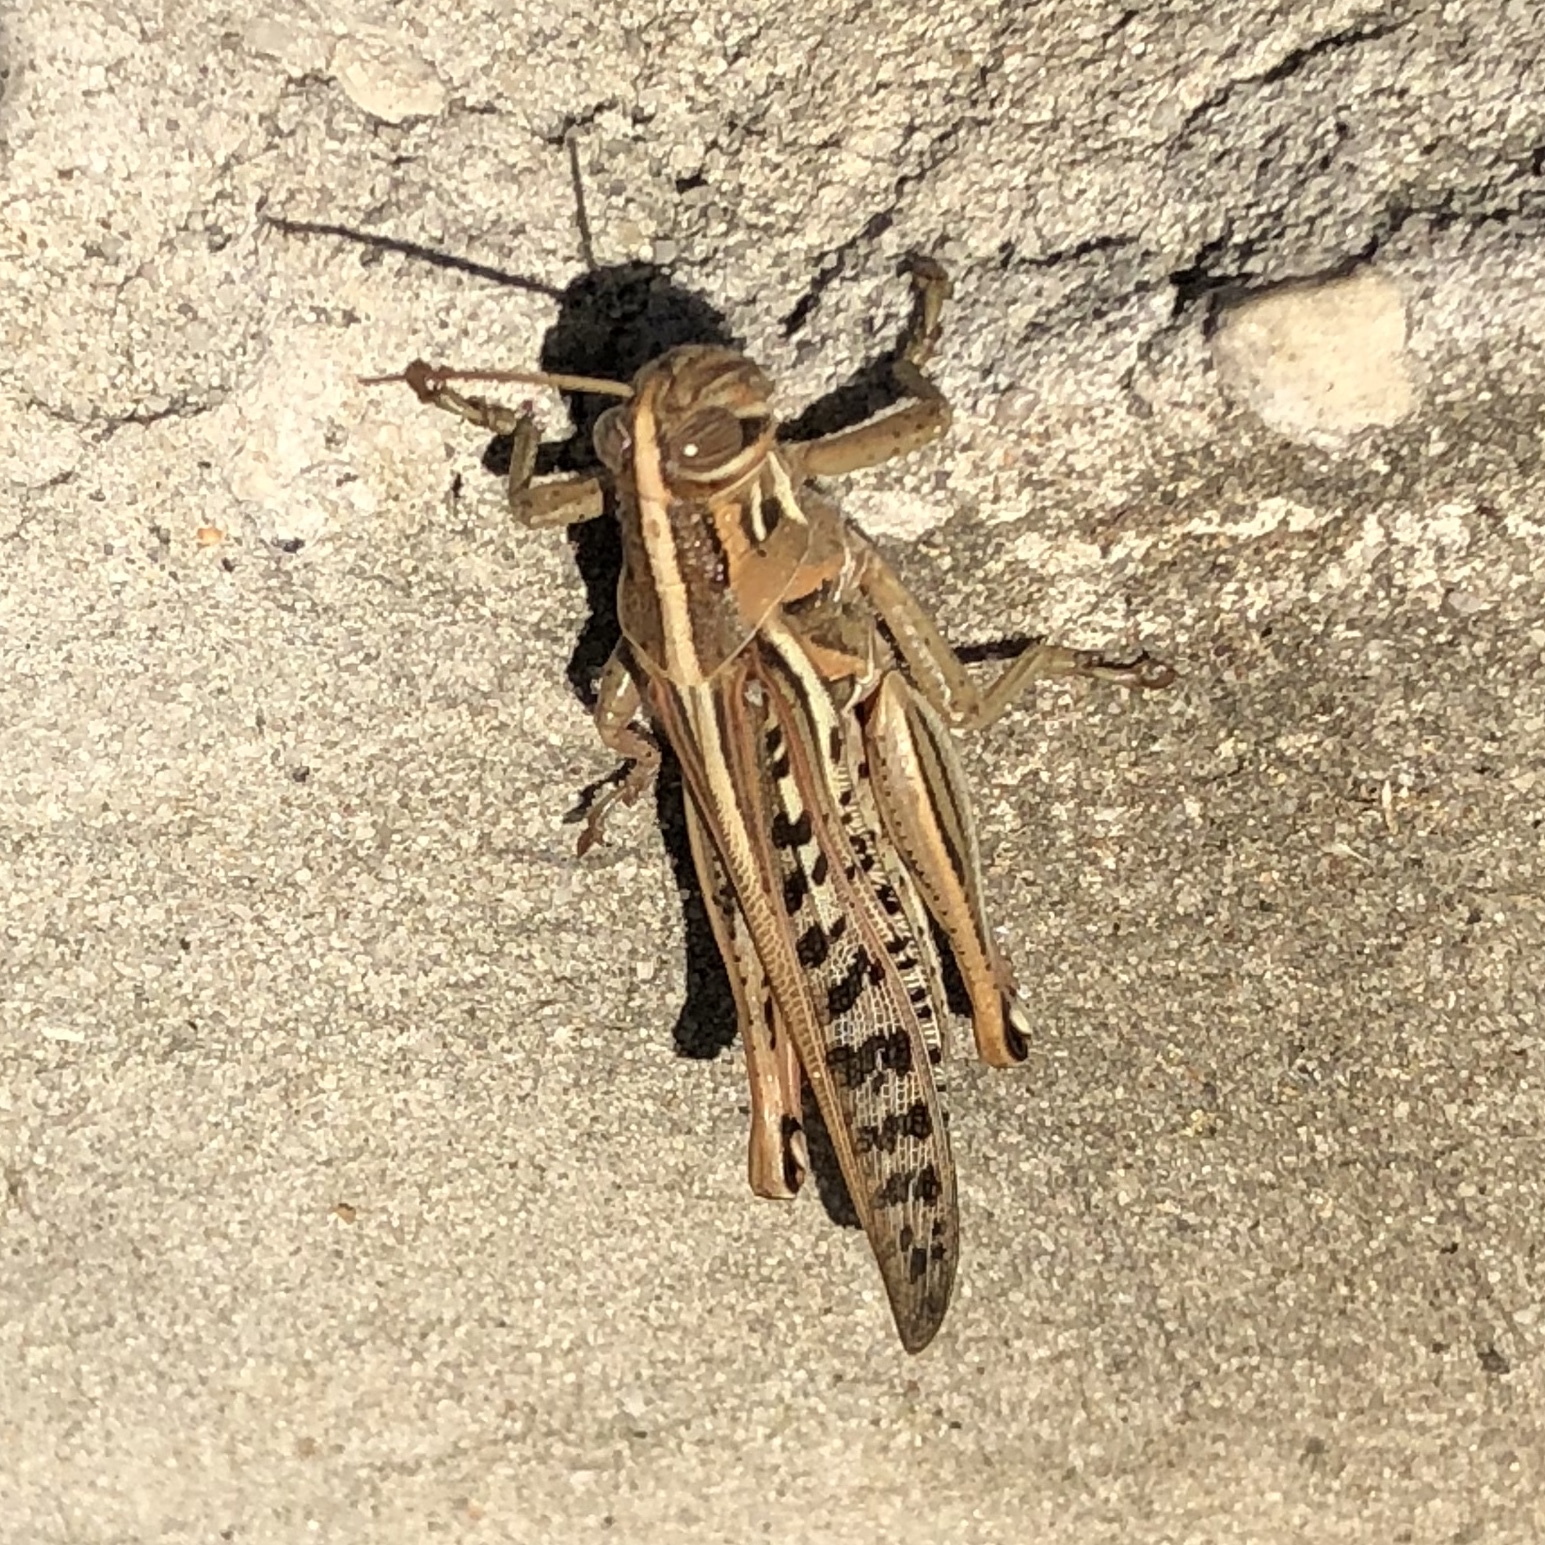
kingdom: Animalia
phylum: Arthropoda
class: Insecta
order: Orthoptera
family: Acrididae
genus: Schistocerca
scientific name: Schistocerca americana
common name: American bird locust
